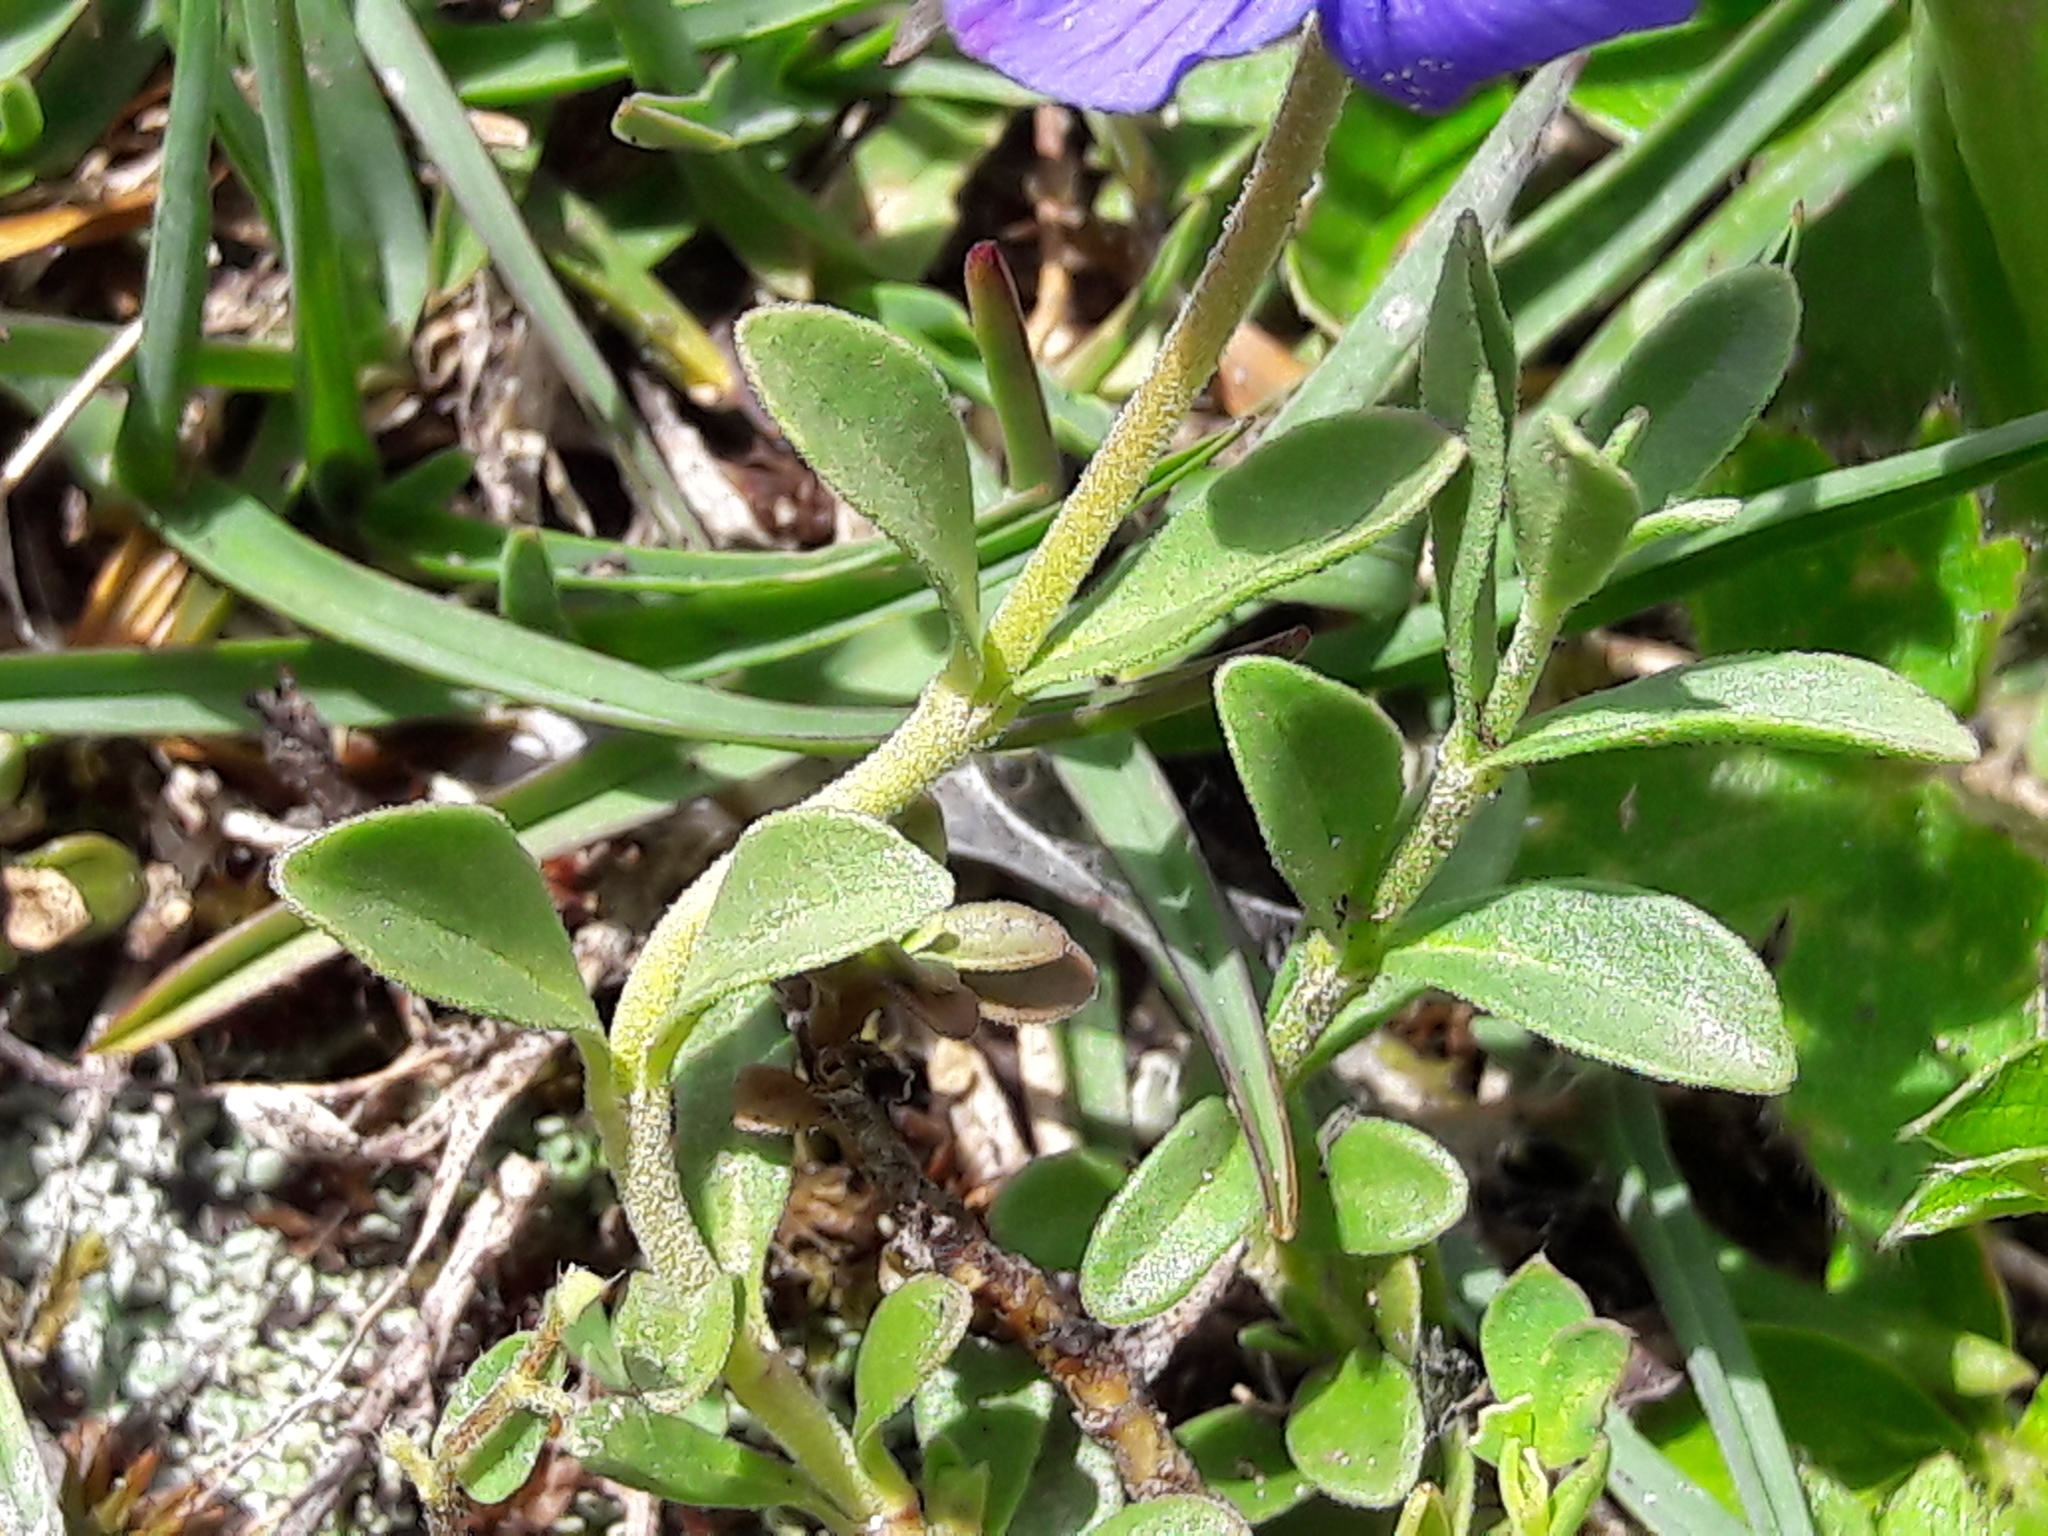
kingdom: Plantae
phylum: Tracheophyta
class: Magnoliopsida
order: Lamiales
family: Plantaginaceae
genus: Veronica
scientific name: Veronica fruticans
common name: Rock speedwell
